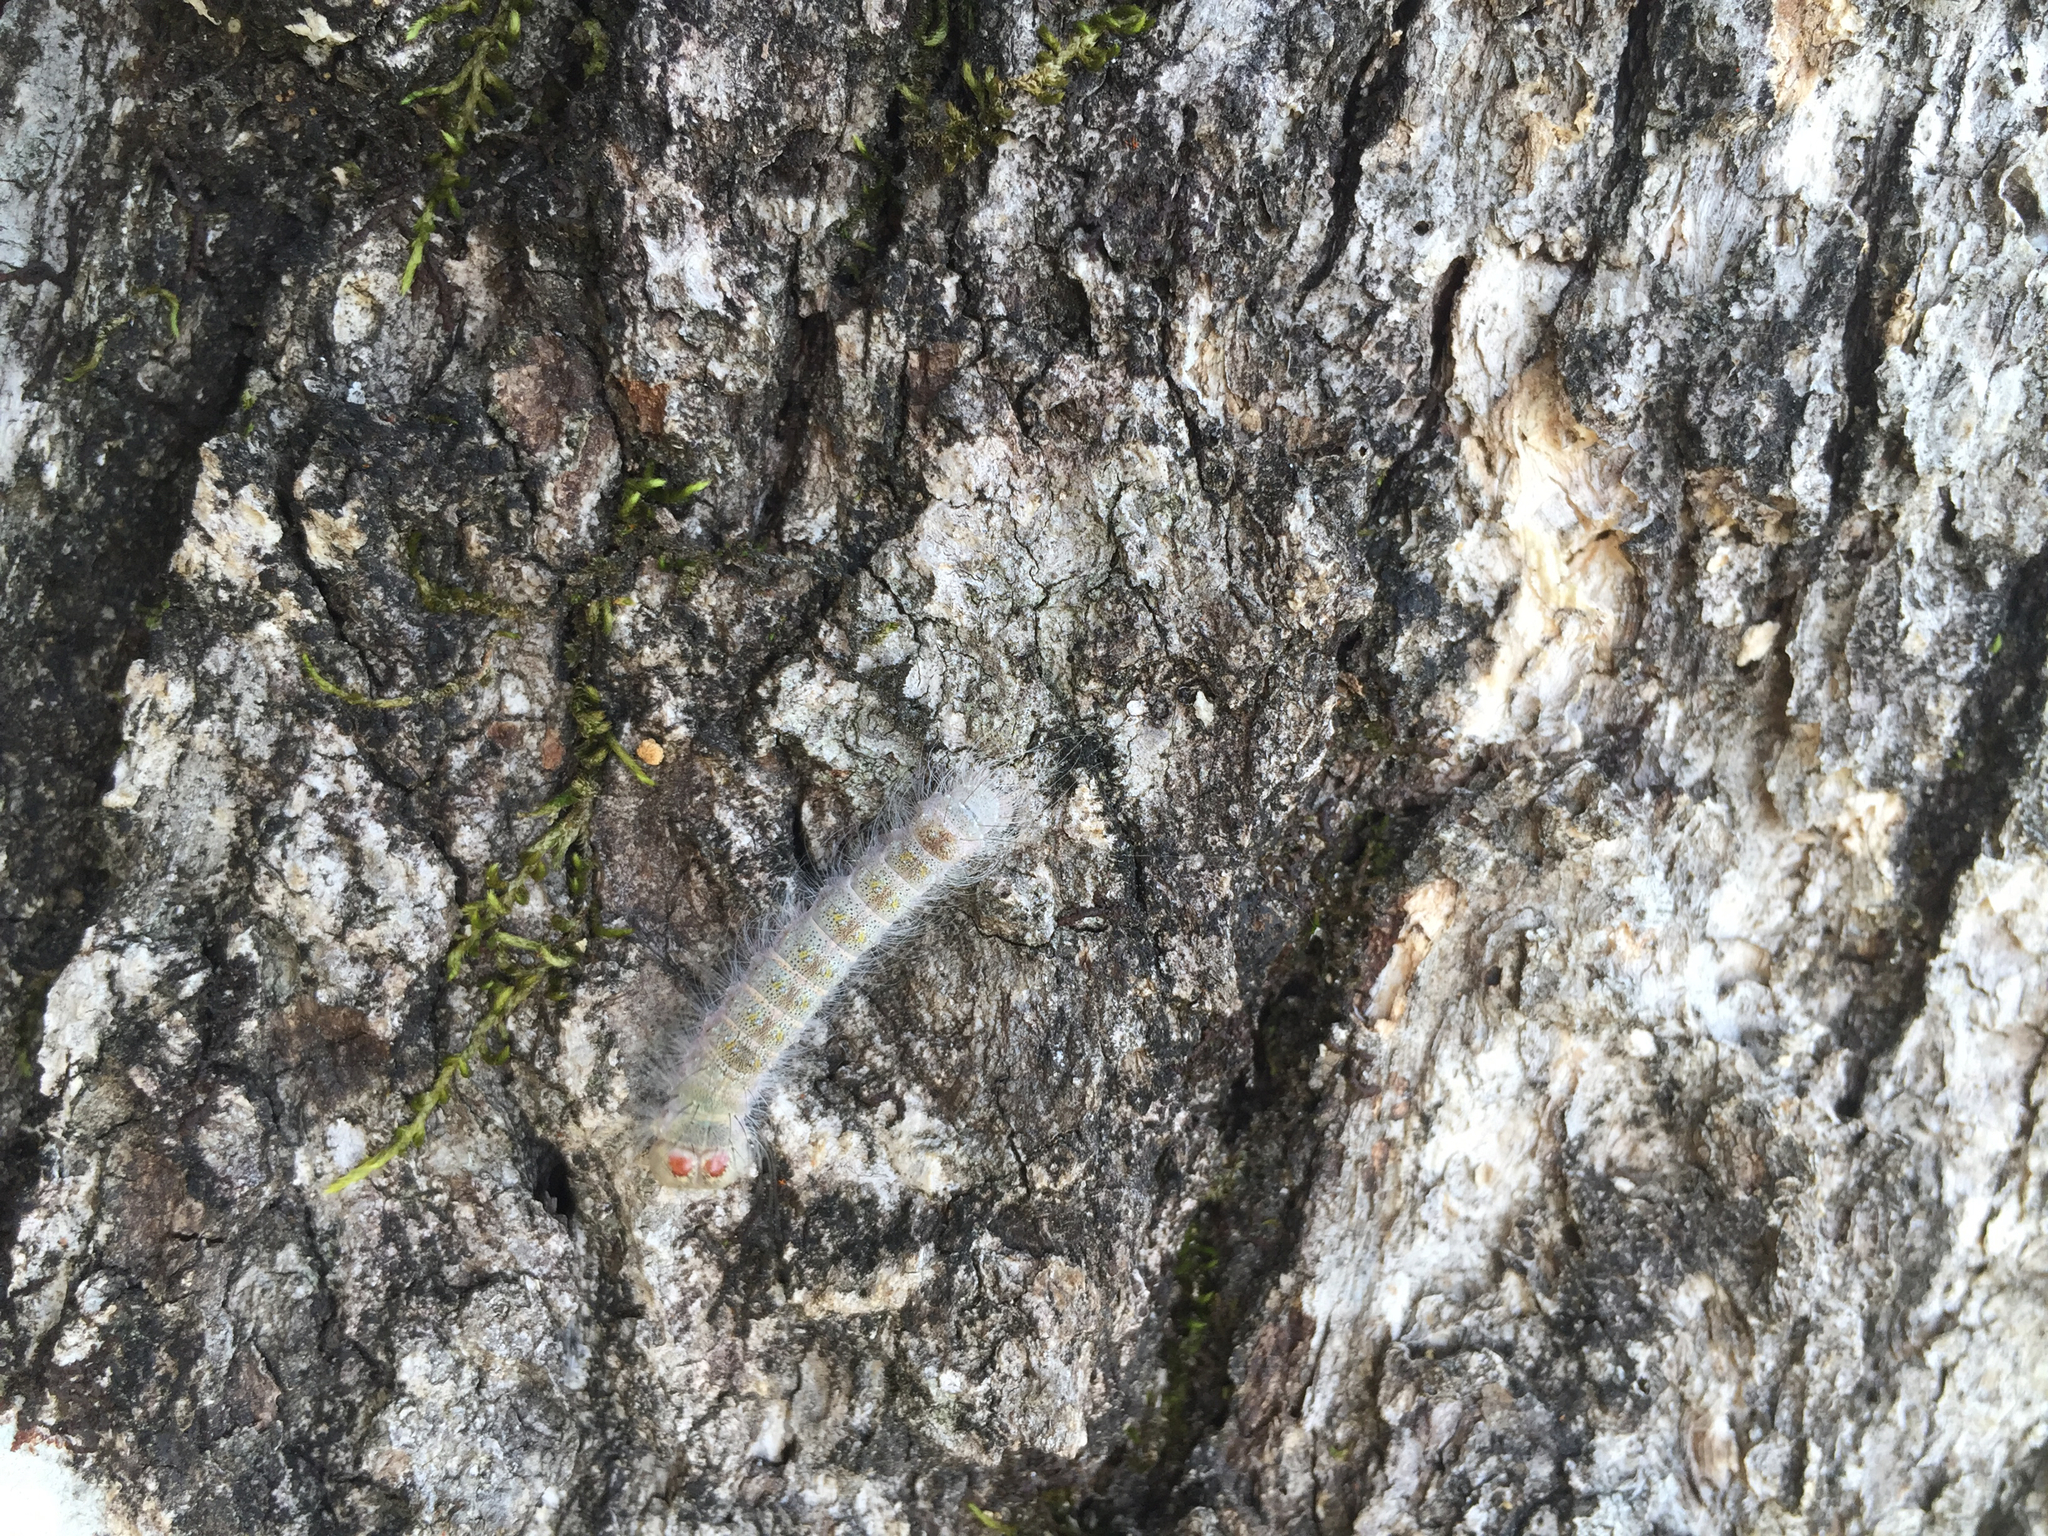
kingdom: Animalia
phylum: Arthropoda
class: Insecta
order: Lepidoptera
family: Noctuidae
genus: Acronicta
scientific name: Acronicta lobeliae
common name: Greater oak dagger
